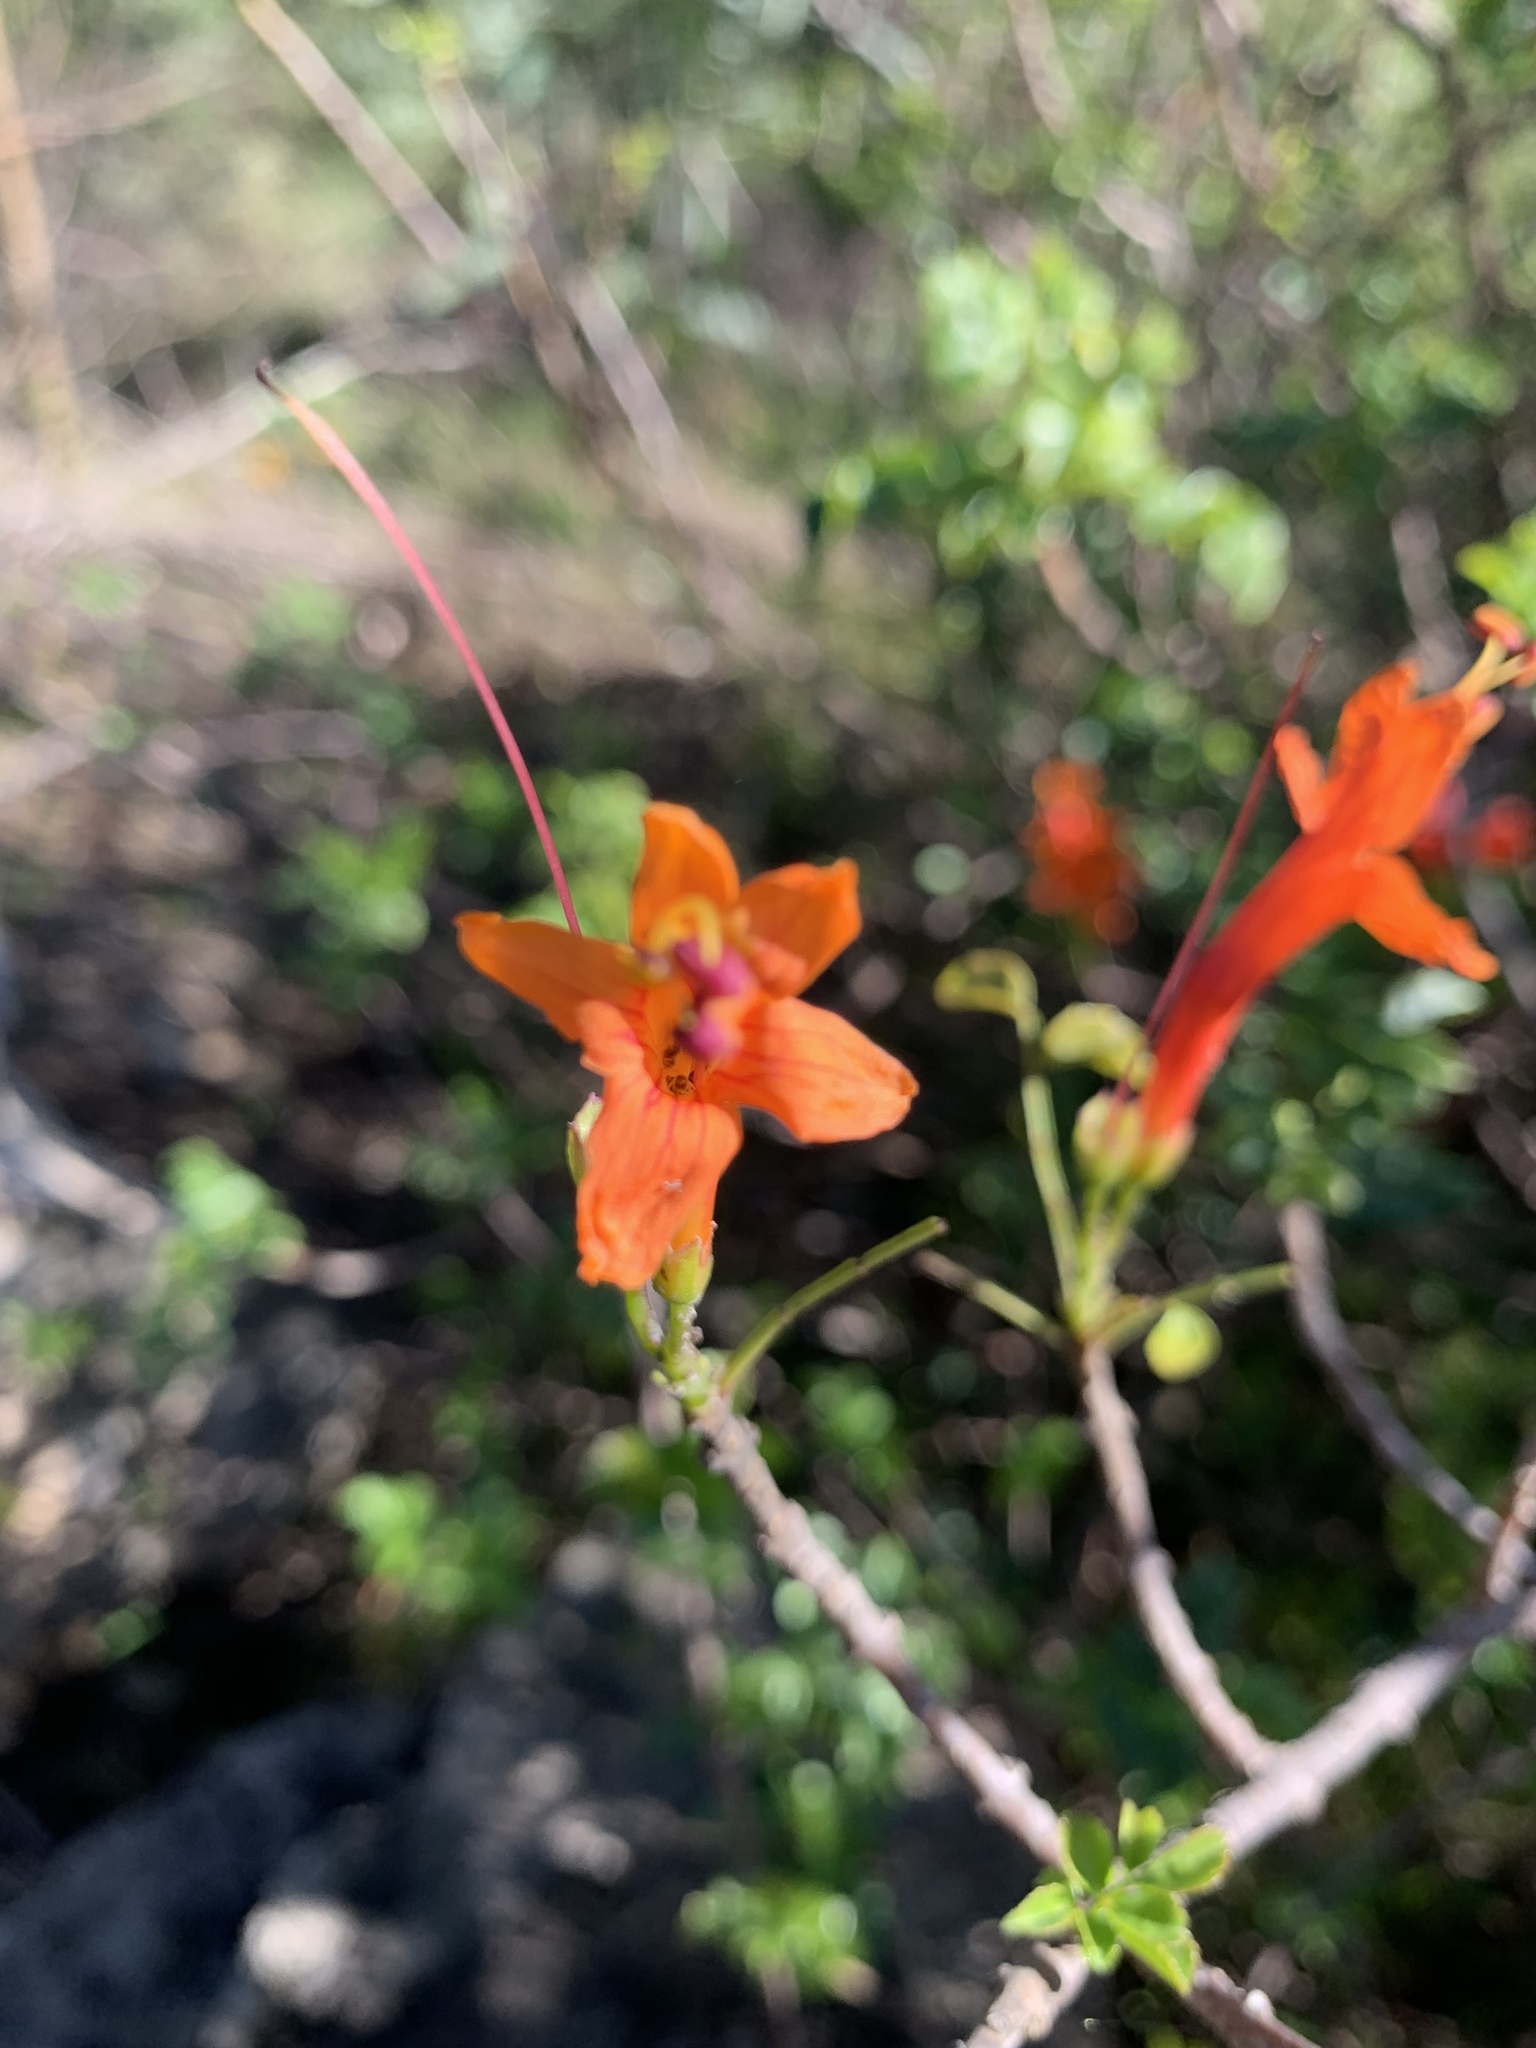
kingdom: Plantae
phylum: Tracheophyta
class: Magnoliopsida
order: Lamiales
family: Bignoniaceae
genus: Tecomaria
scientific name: Tecomaria capensis
